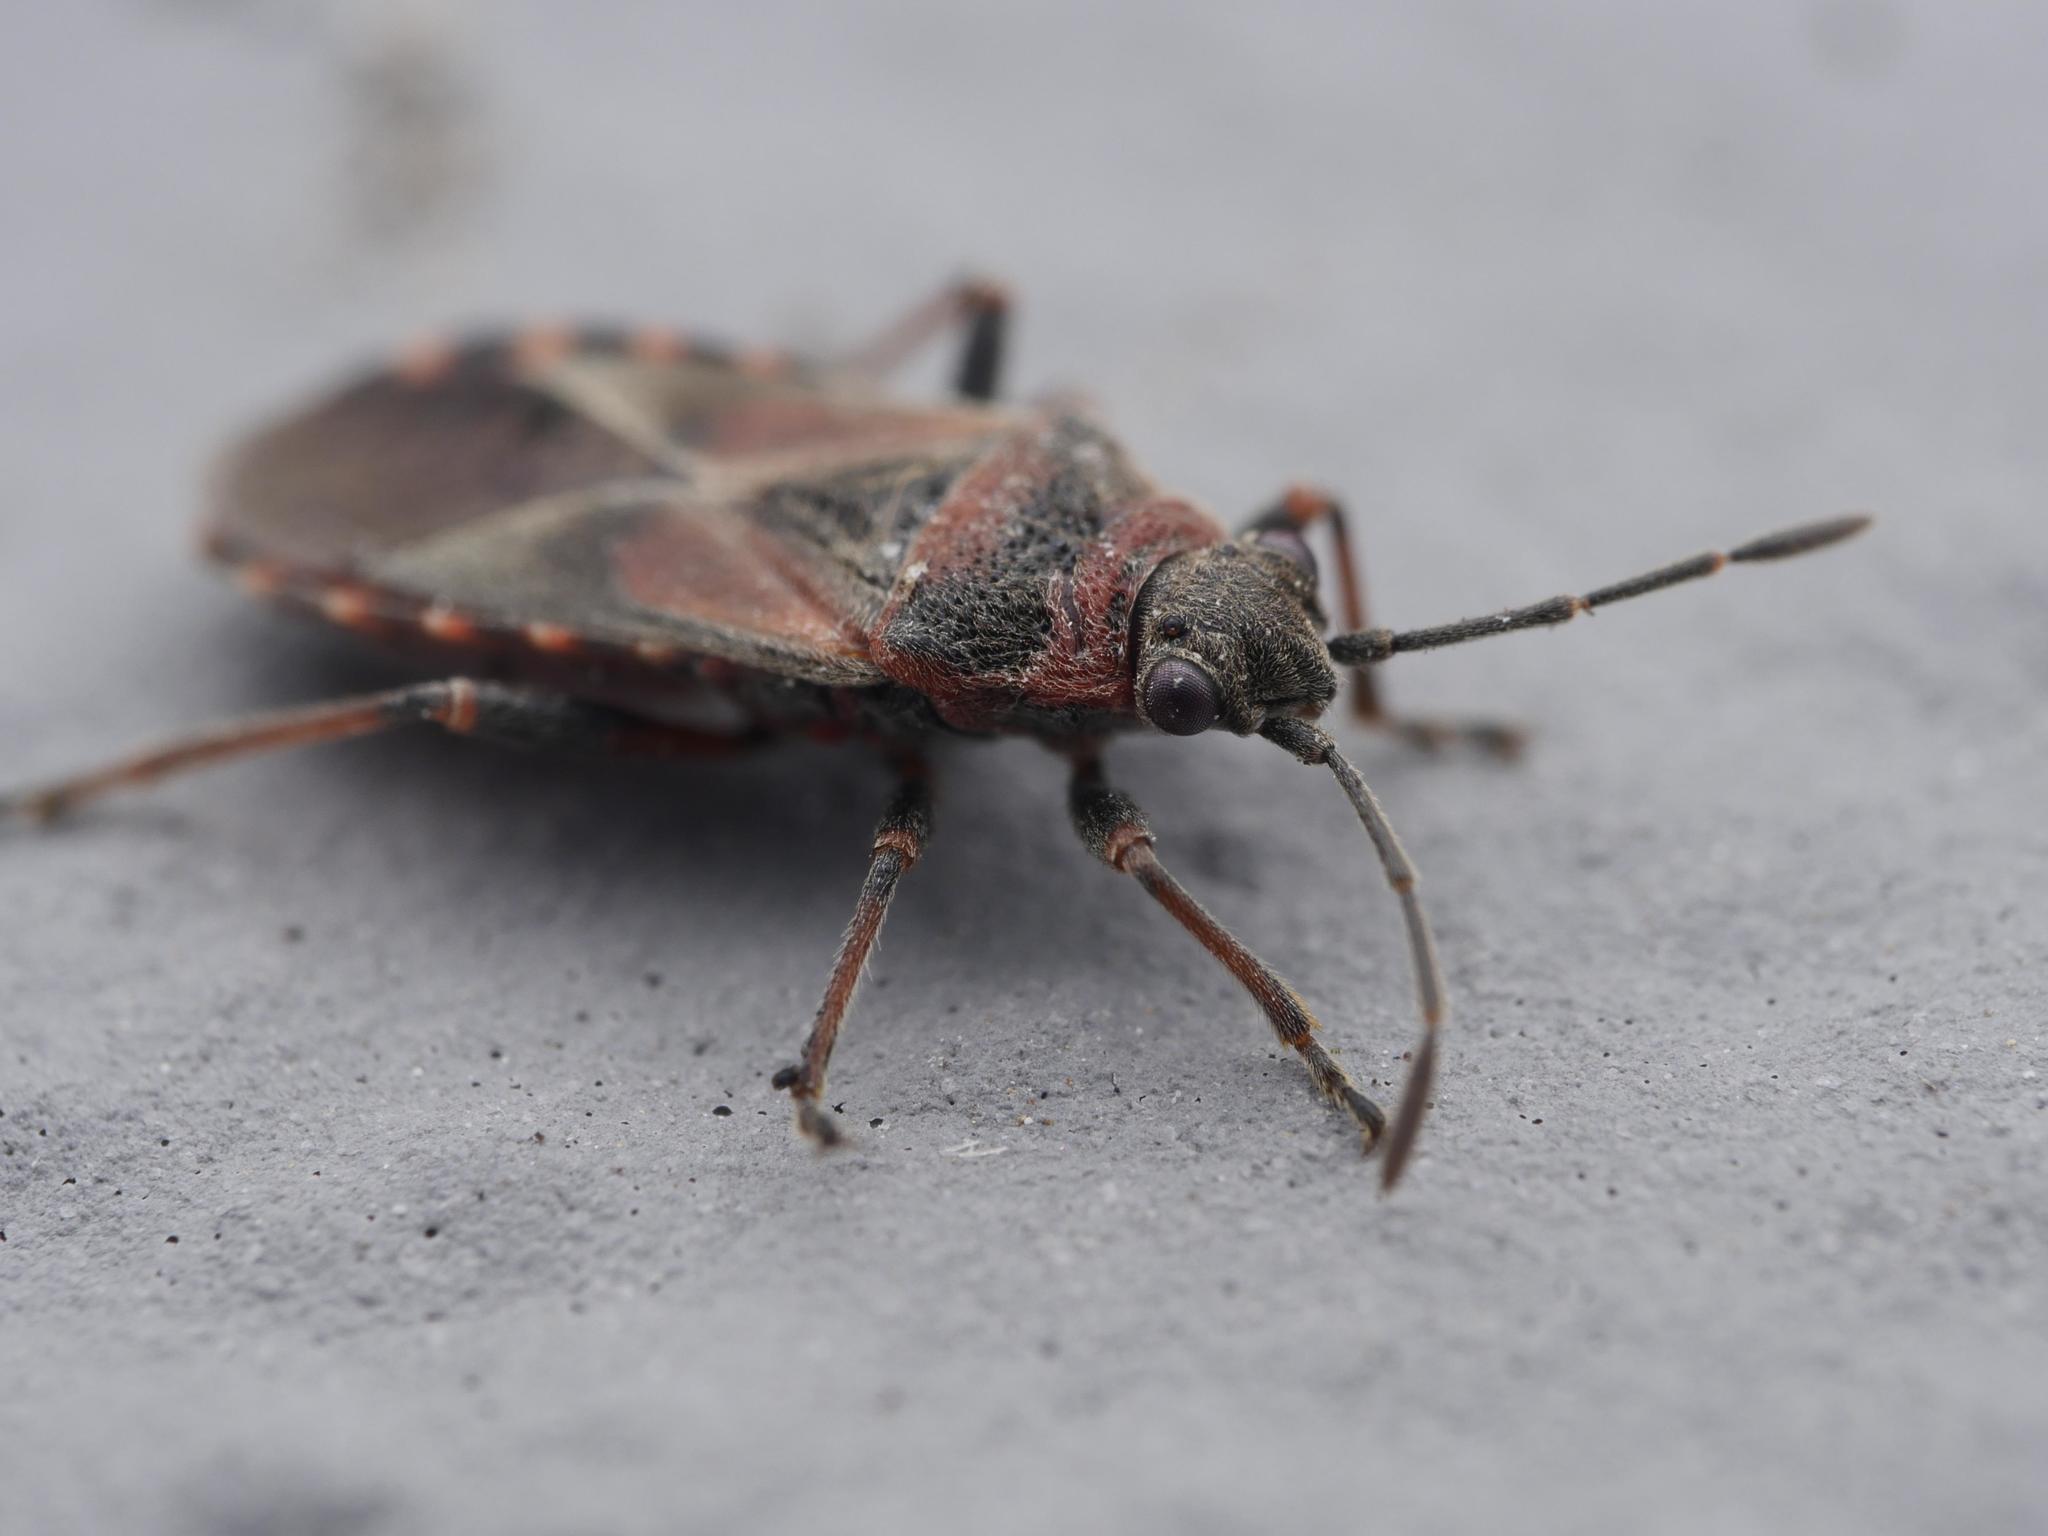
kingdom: Animalia
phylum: Arthropoda
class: Insecta
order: Hemiptera
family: Lygaeidae
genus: Arocatus
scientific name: Arocatus melanocephalus
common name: Lygaeid bug
